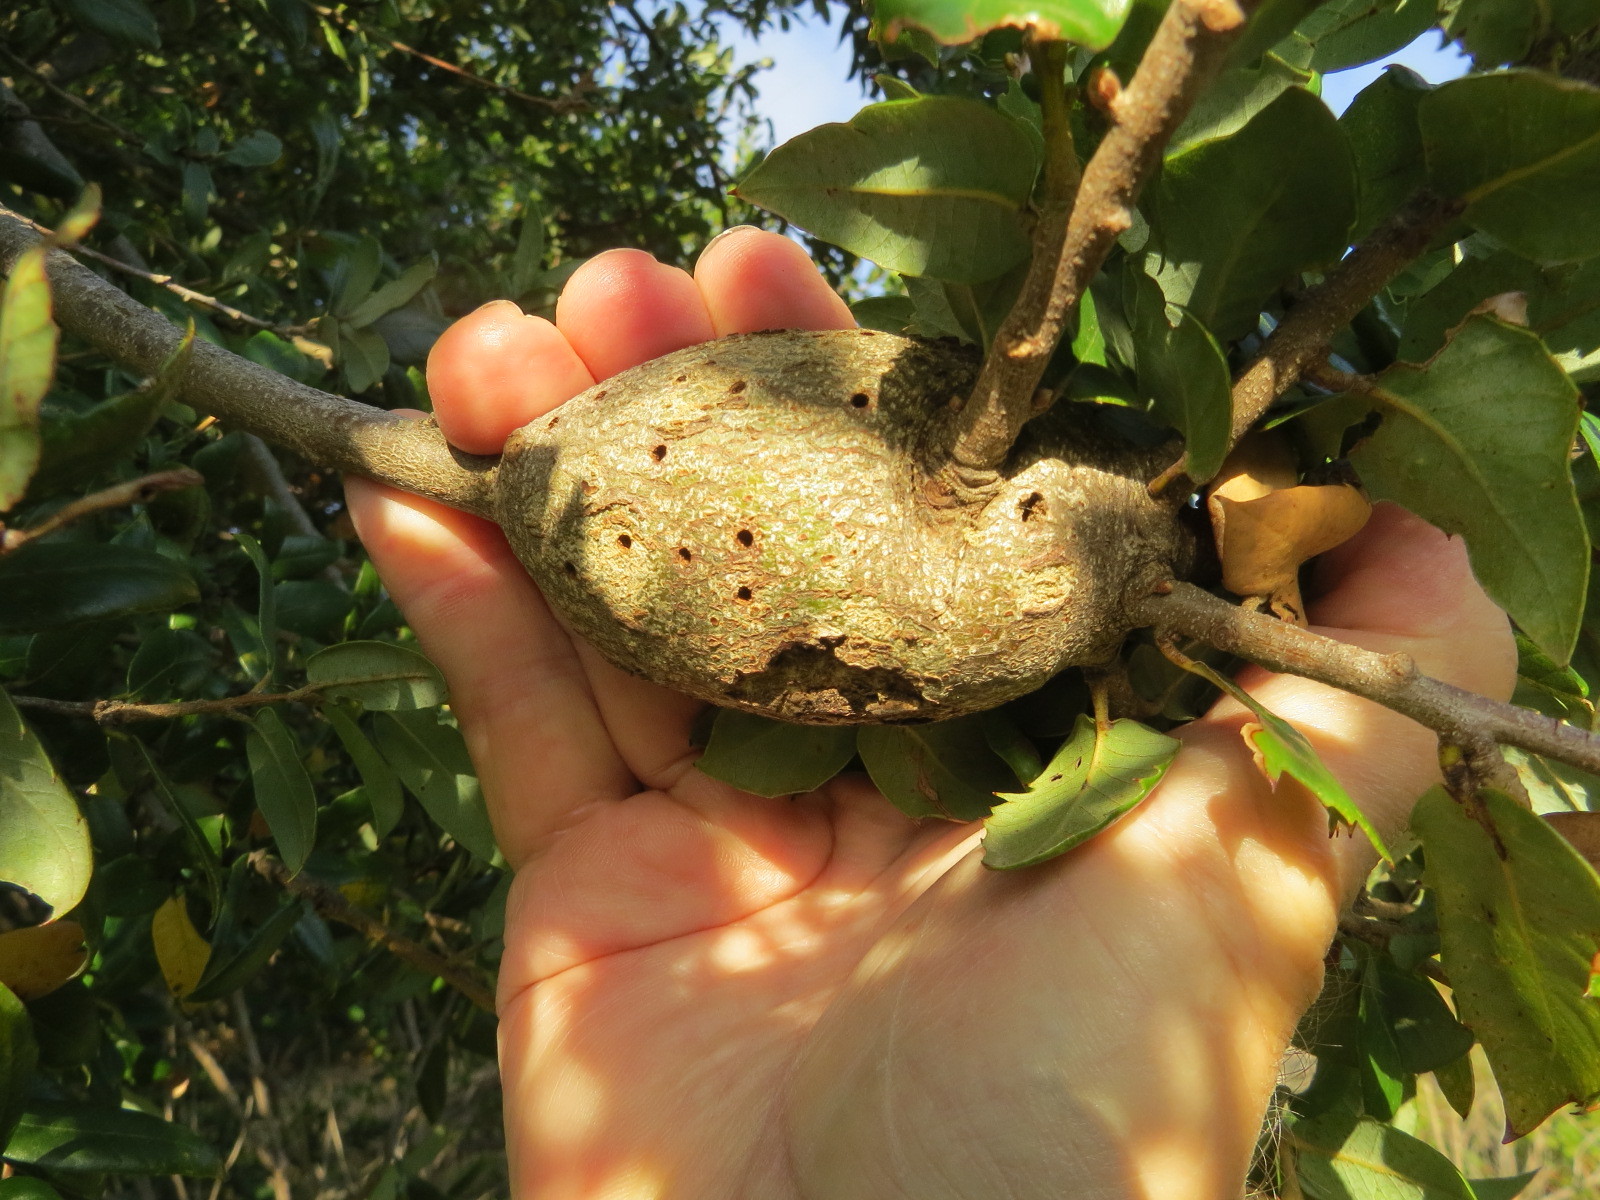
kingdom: Animalia
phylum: Arthropoda
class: Insecta
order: Hymenoptera
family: Cynipidae
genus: Dryocosmus
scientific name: Dryocosmus
